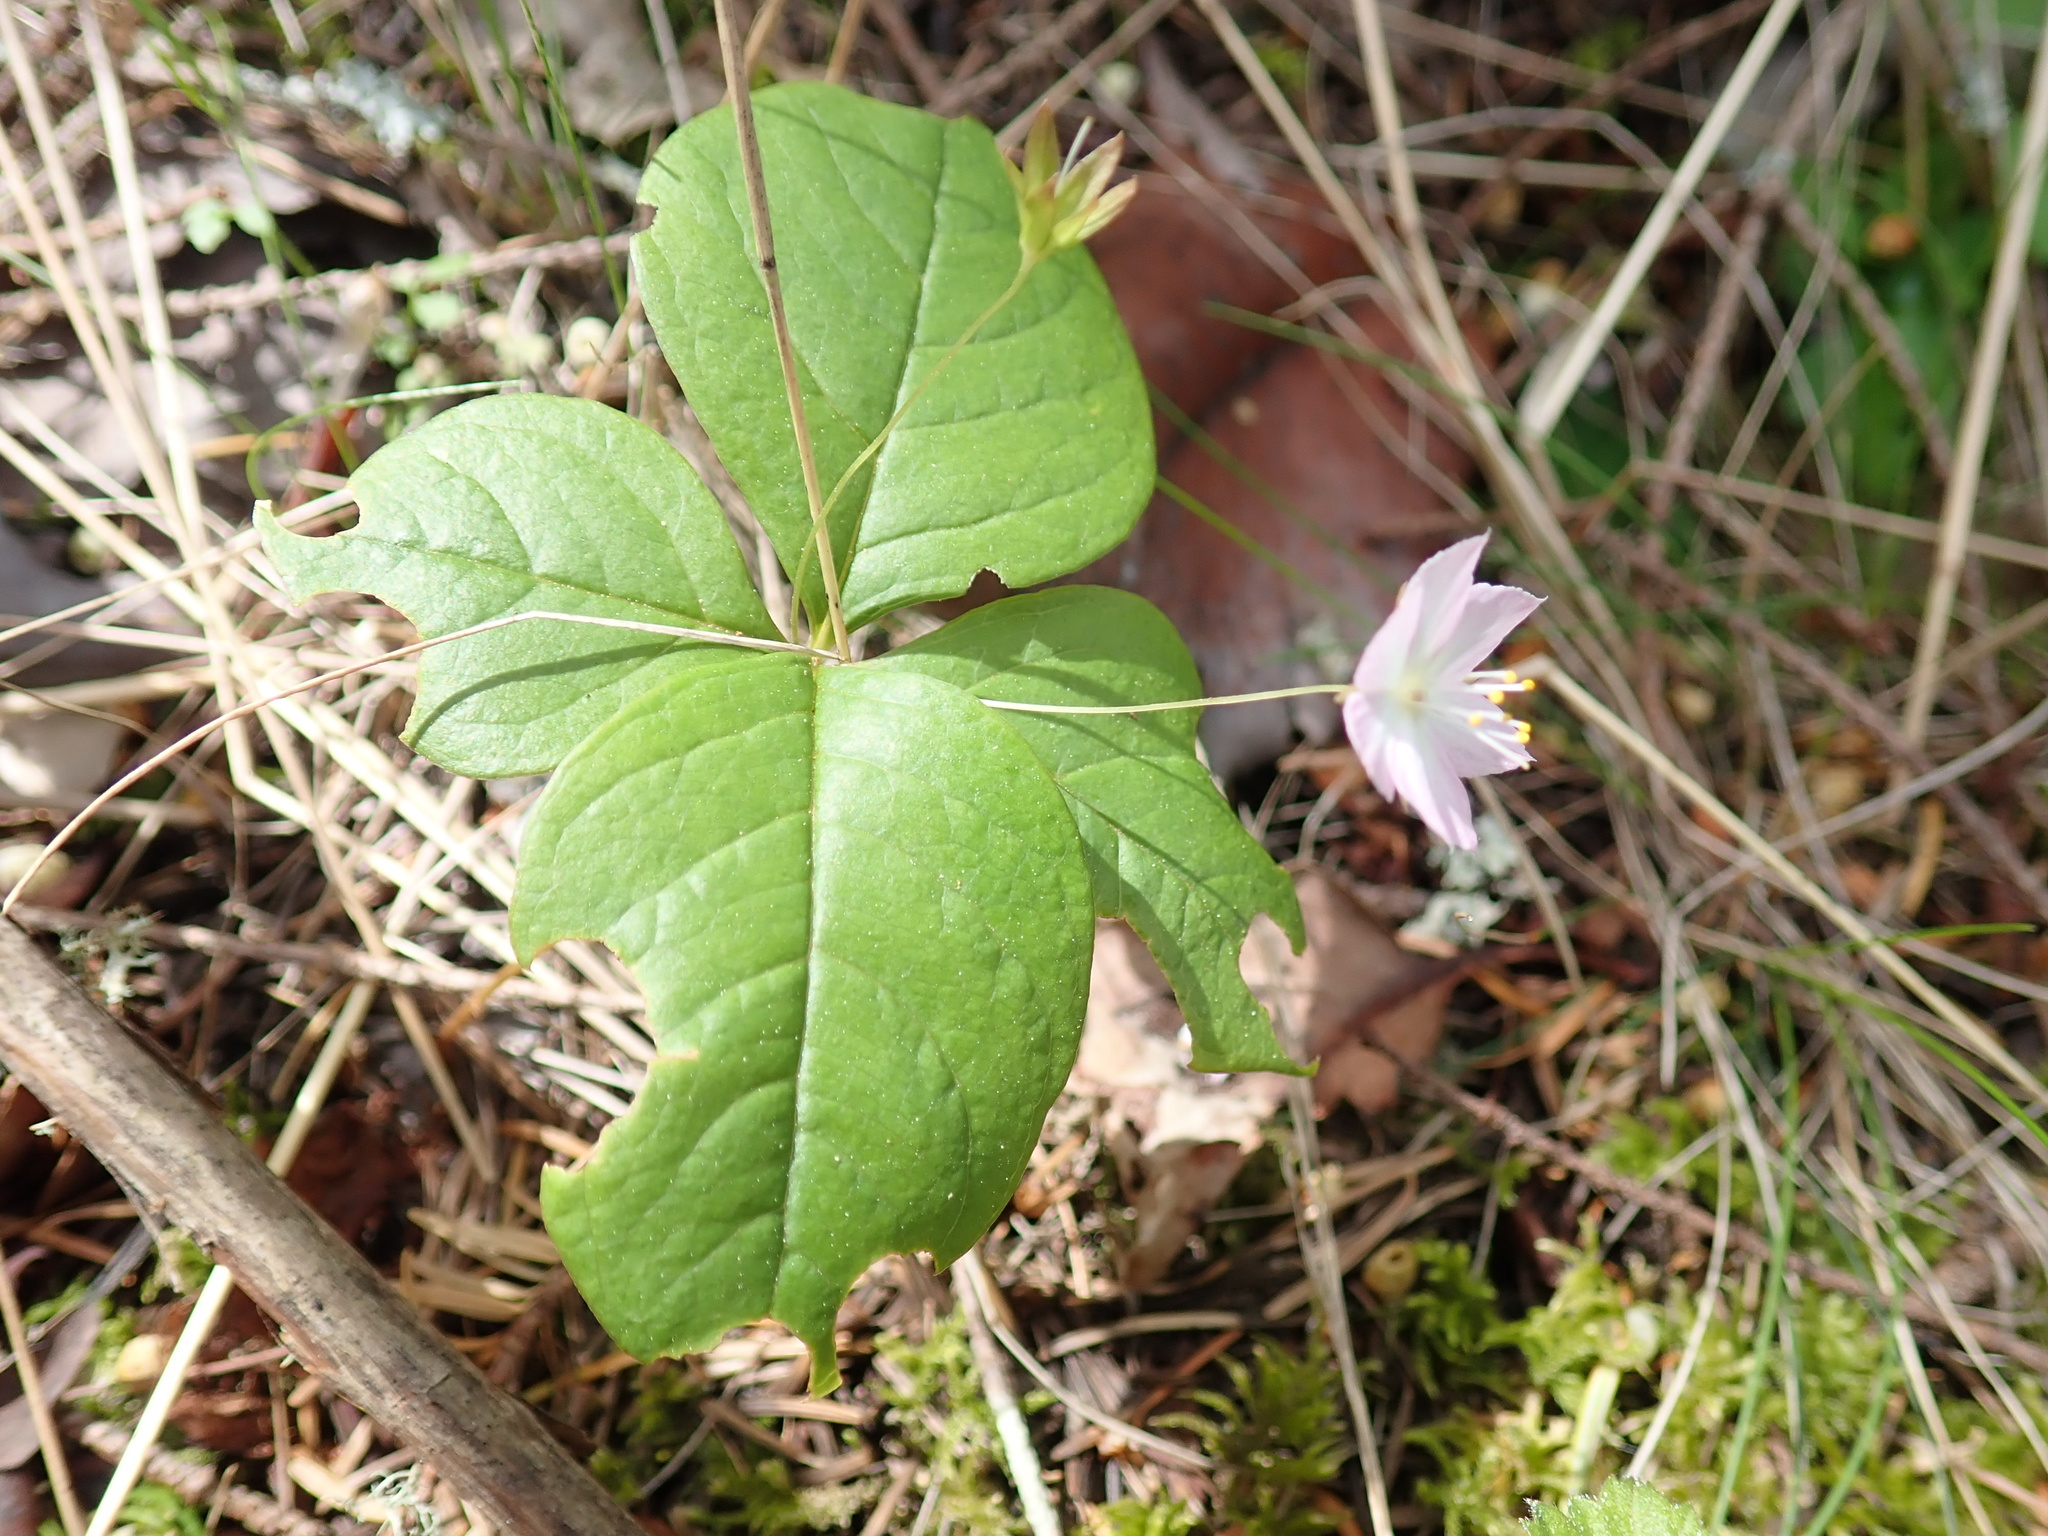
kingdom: Plantae
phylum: Tracheophyta
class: Magnoliopsida
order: Ericales
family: Primulaceae
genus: Lysimachia
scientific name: Lysimachia latifolia
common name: Pacific starflower
